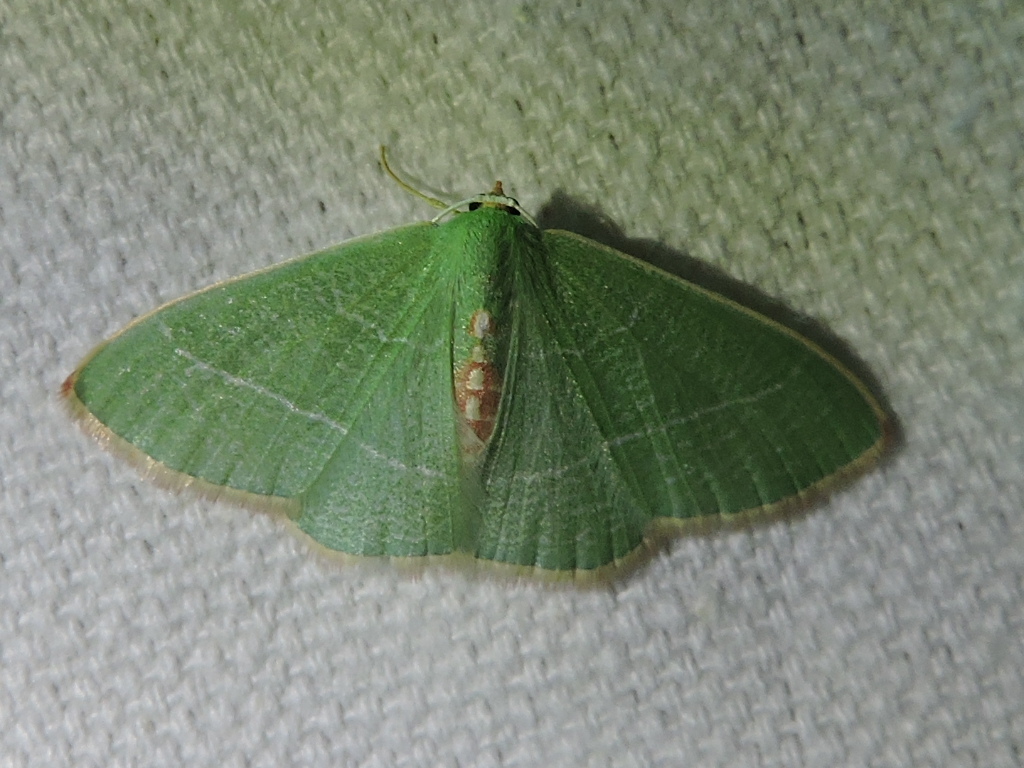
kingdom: Animalia
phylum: Arthropoda
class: Insecta
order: Lepidoptera
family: Geometridae
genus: Nemoria
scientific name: Nemoria yellowrosea
